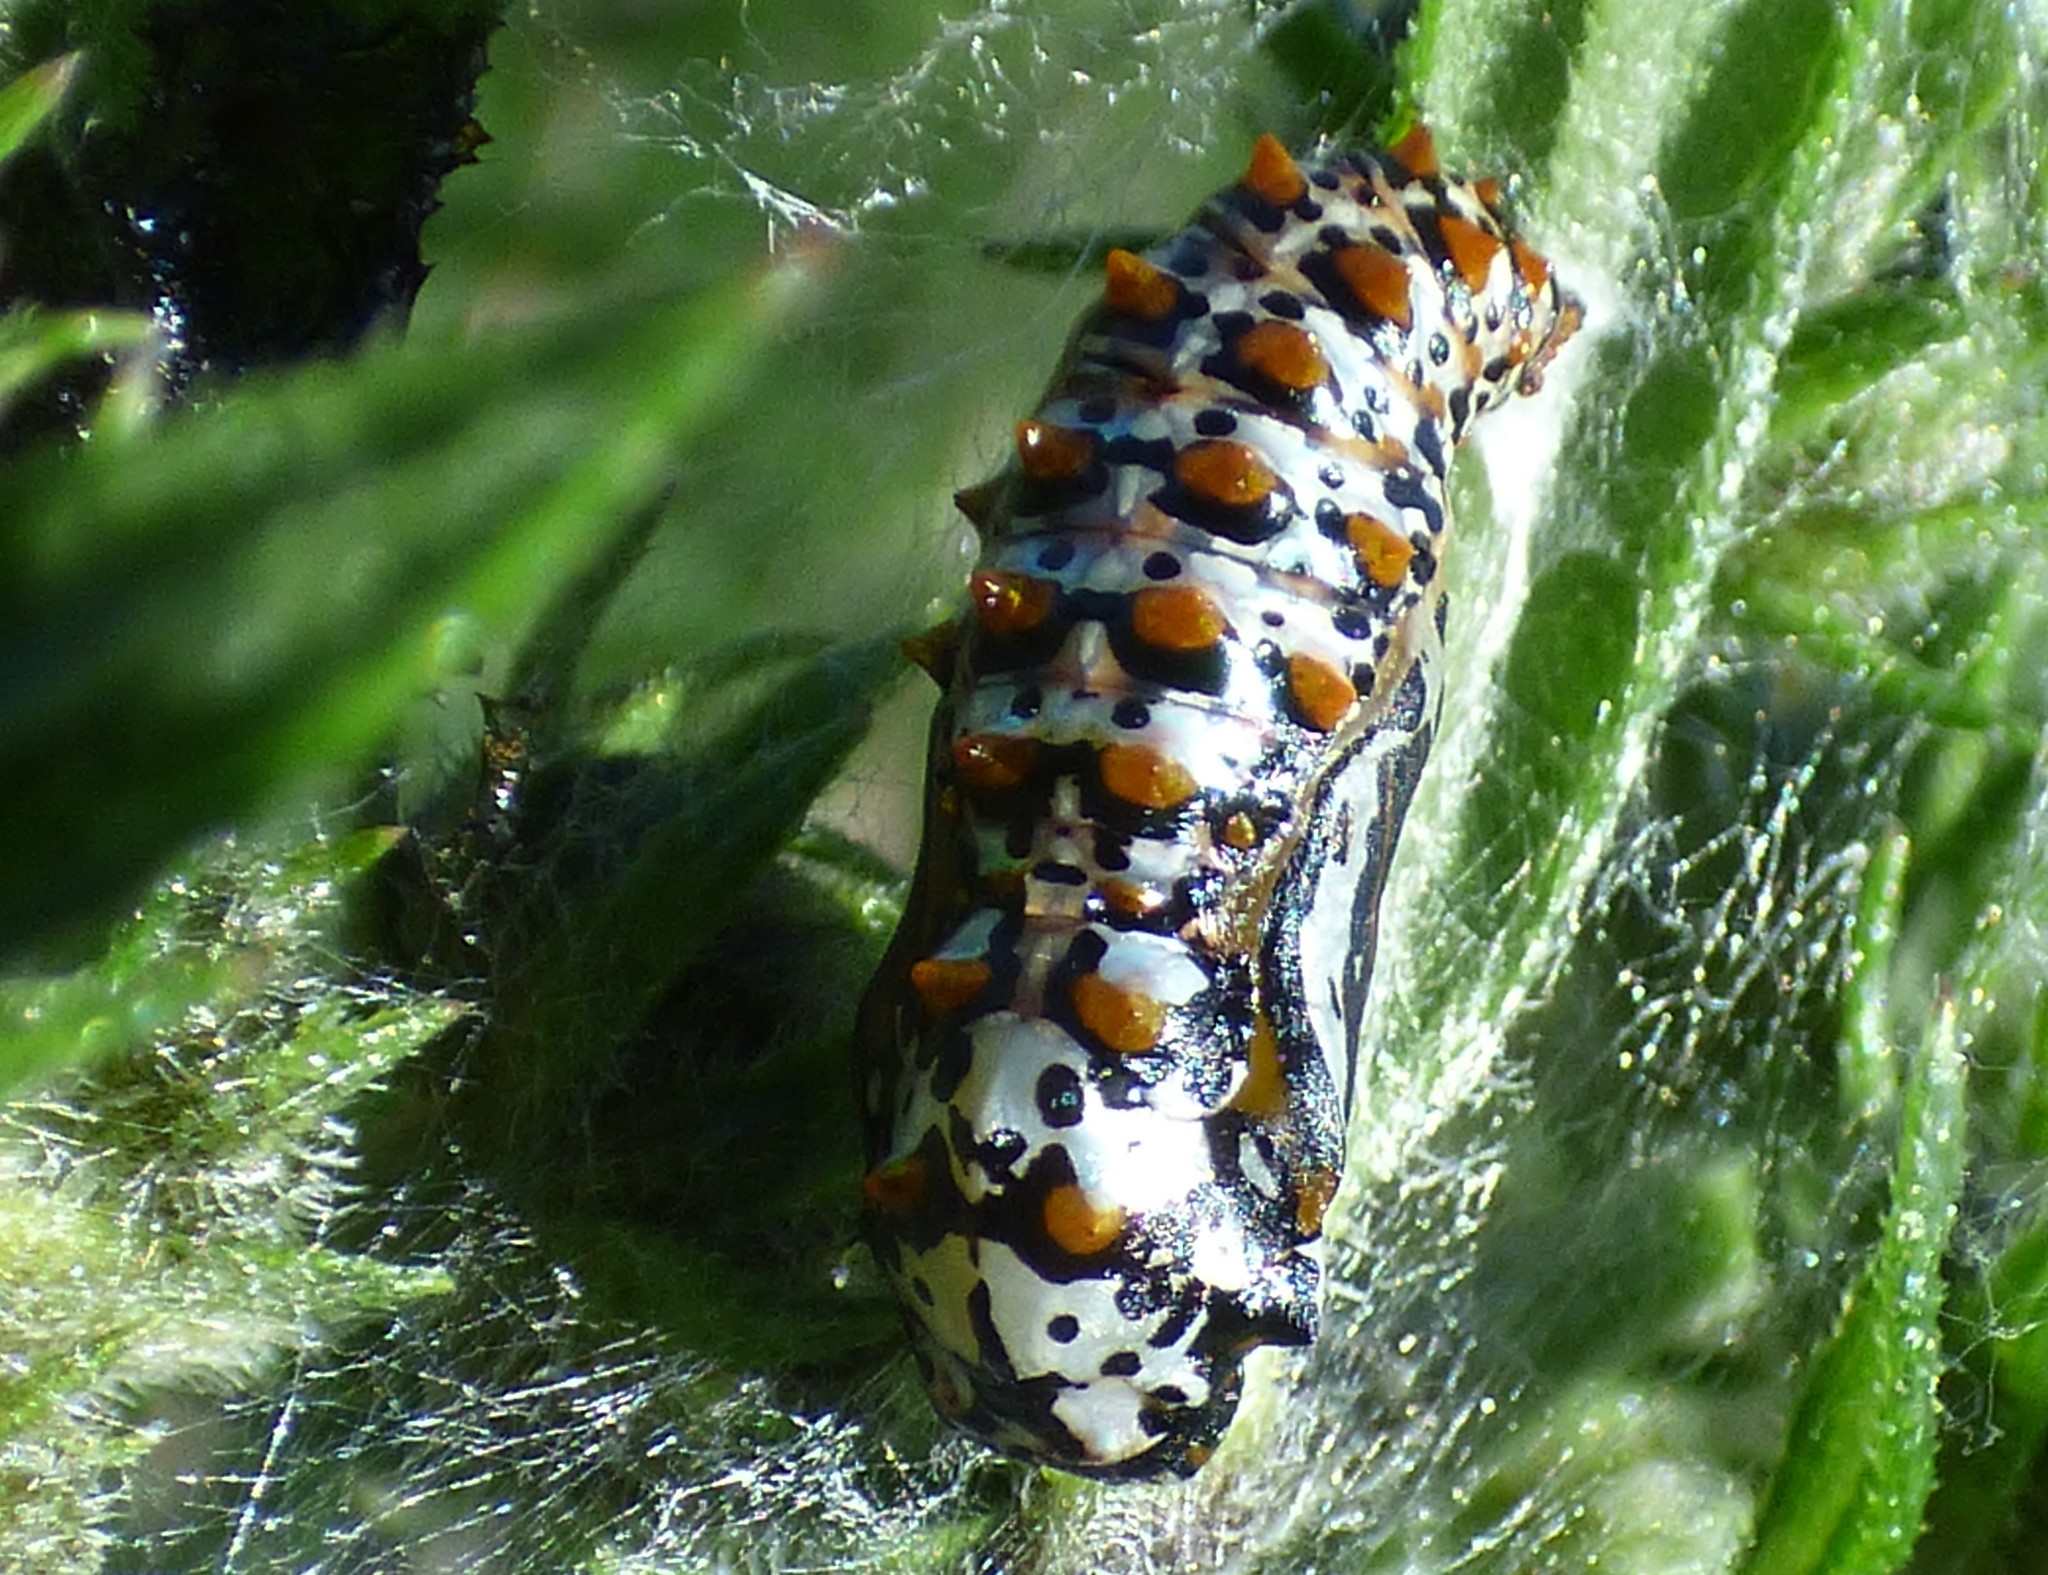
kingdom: Animalia
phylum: Arthropoda
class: Insecta
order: Lepidoptera
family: Nymphalidae
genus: Euptoieta
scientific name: Euptoieta claudia
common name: Variegated fritillary
